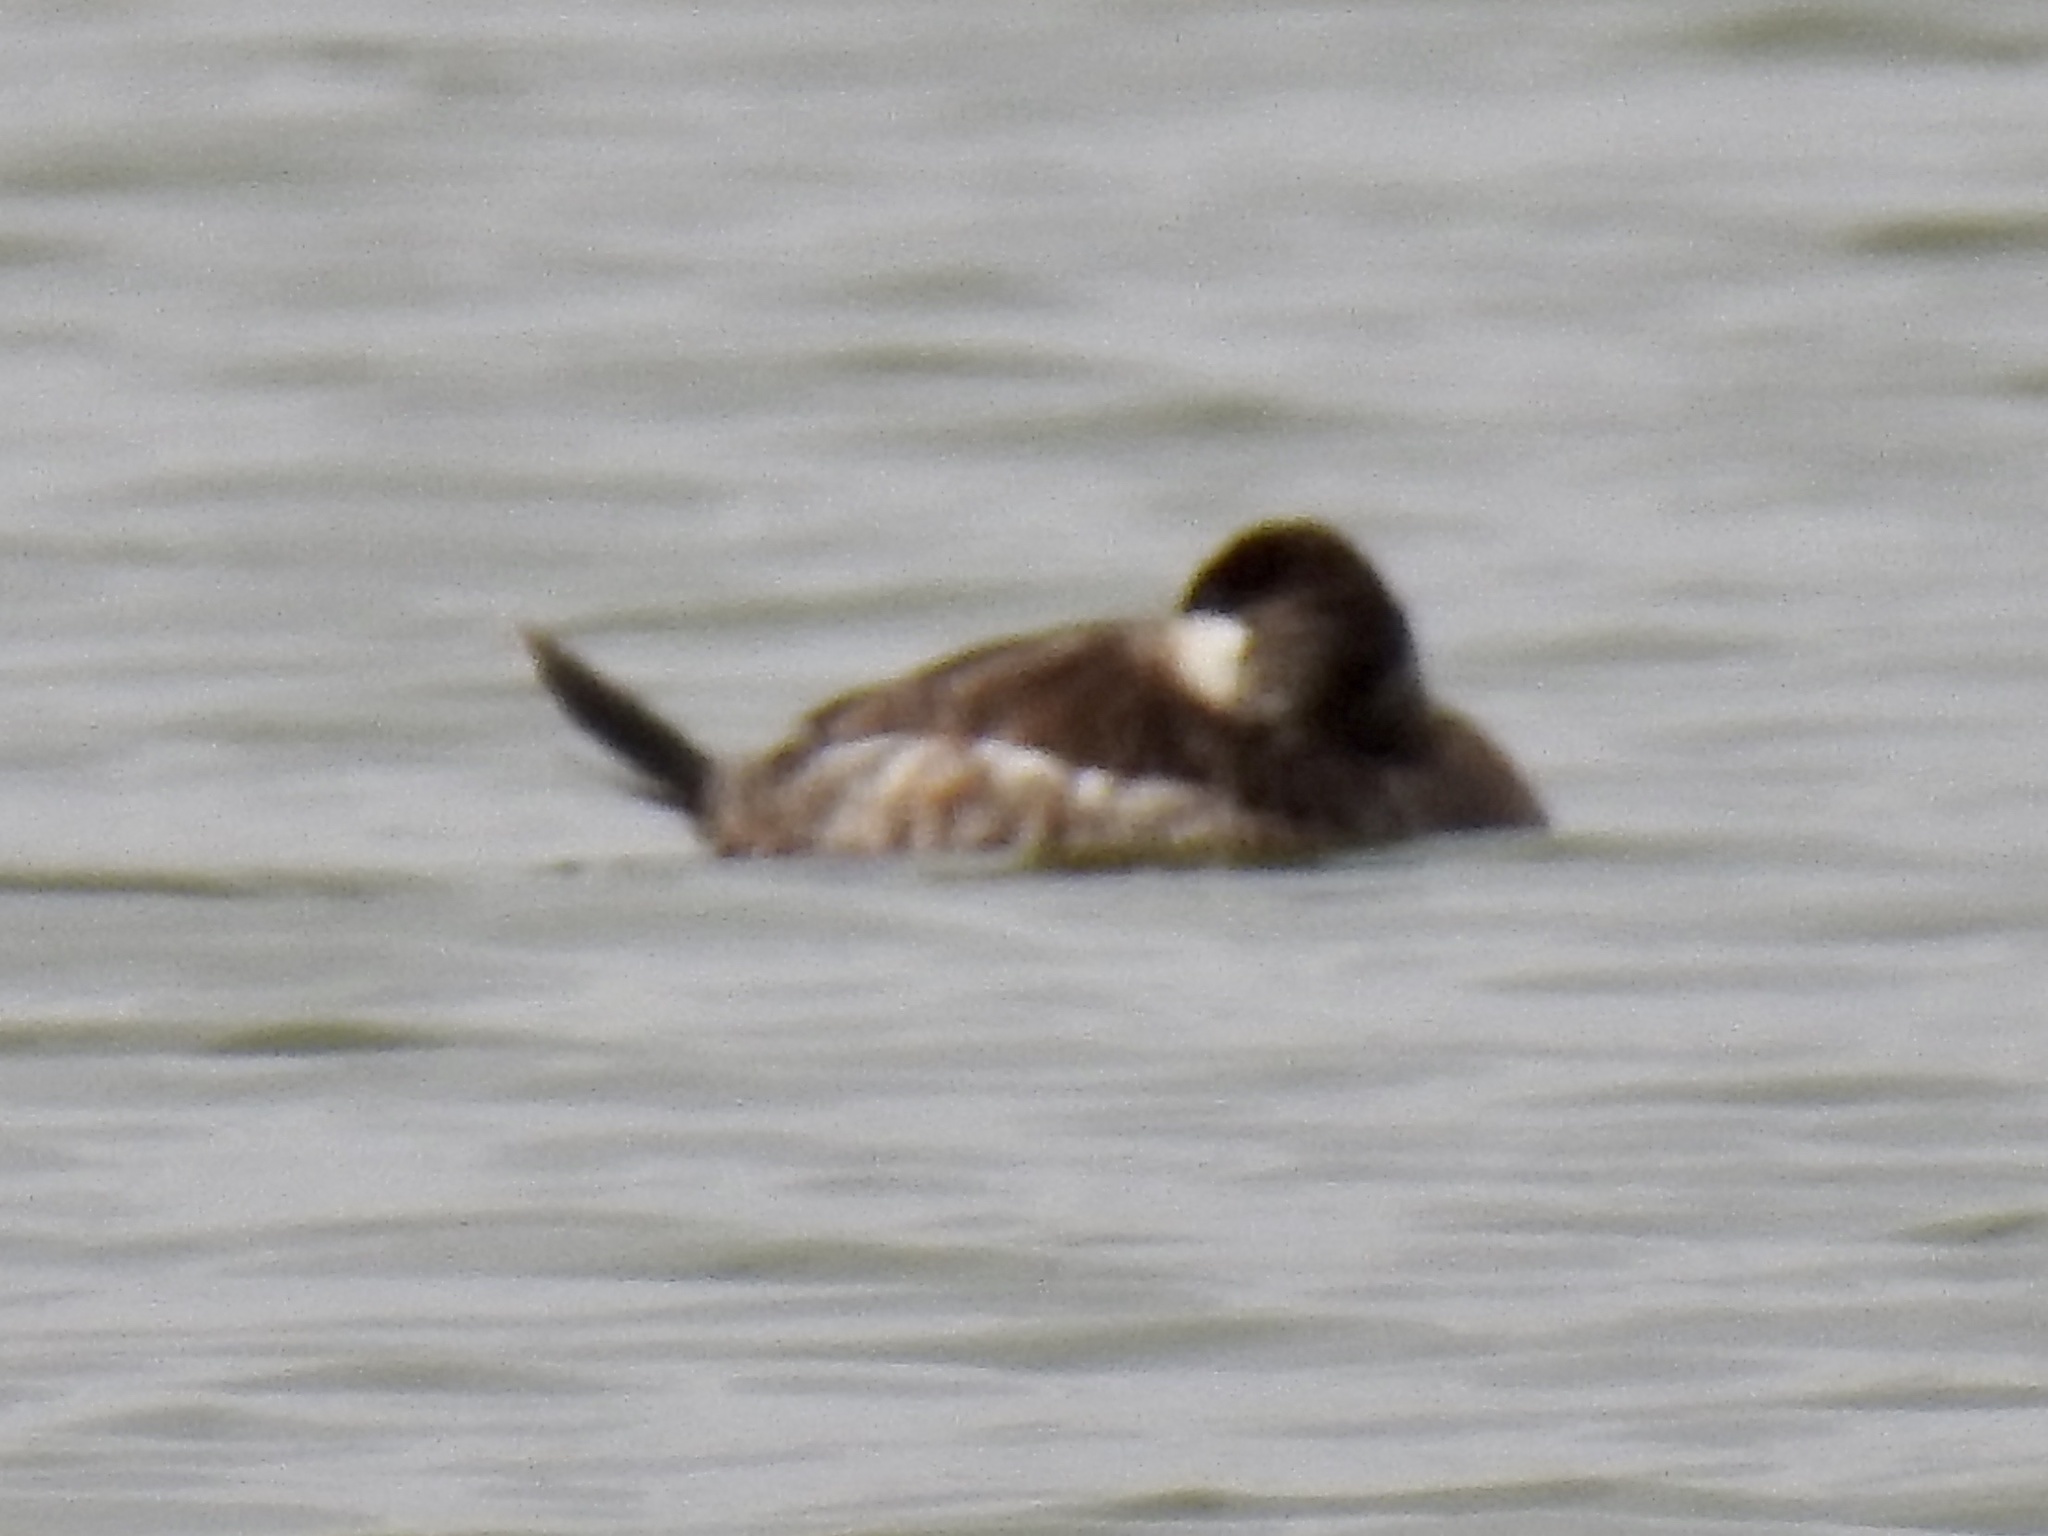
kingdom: Animalia
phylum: Chordata
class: Aves
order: Anseriformes
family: Anatidae
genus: Oxyura
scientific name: Oxyura jamaicensis
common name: Ruddy duck
